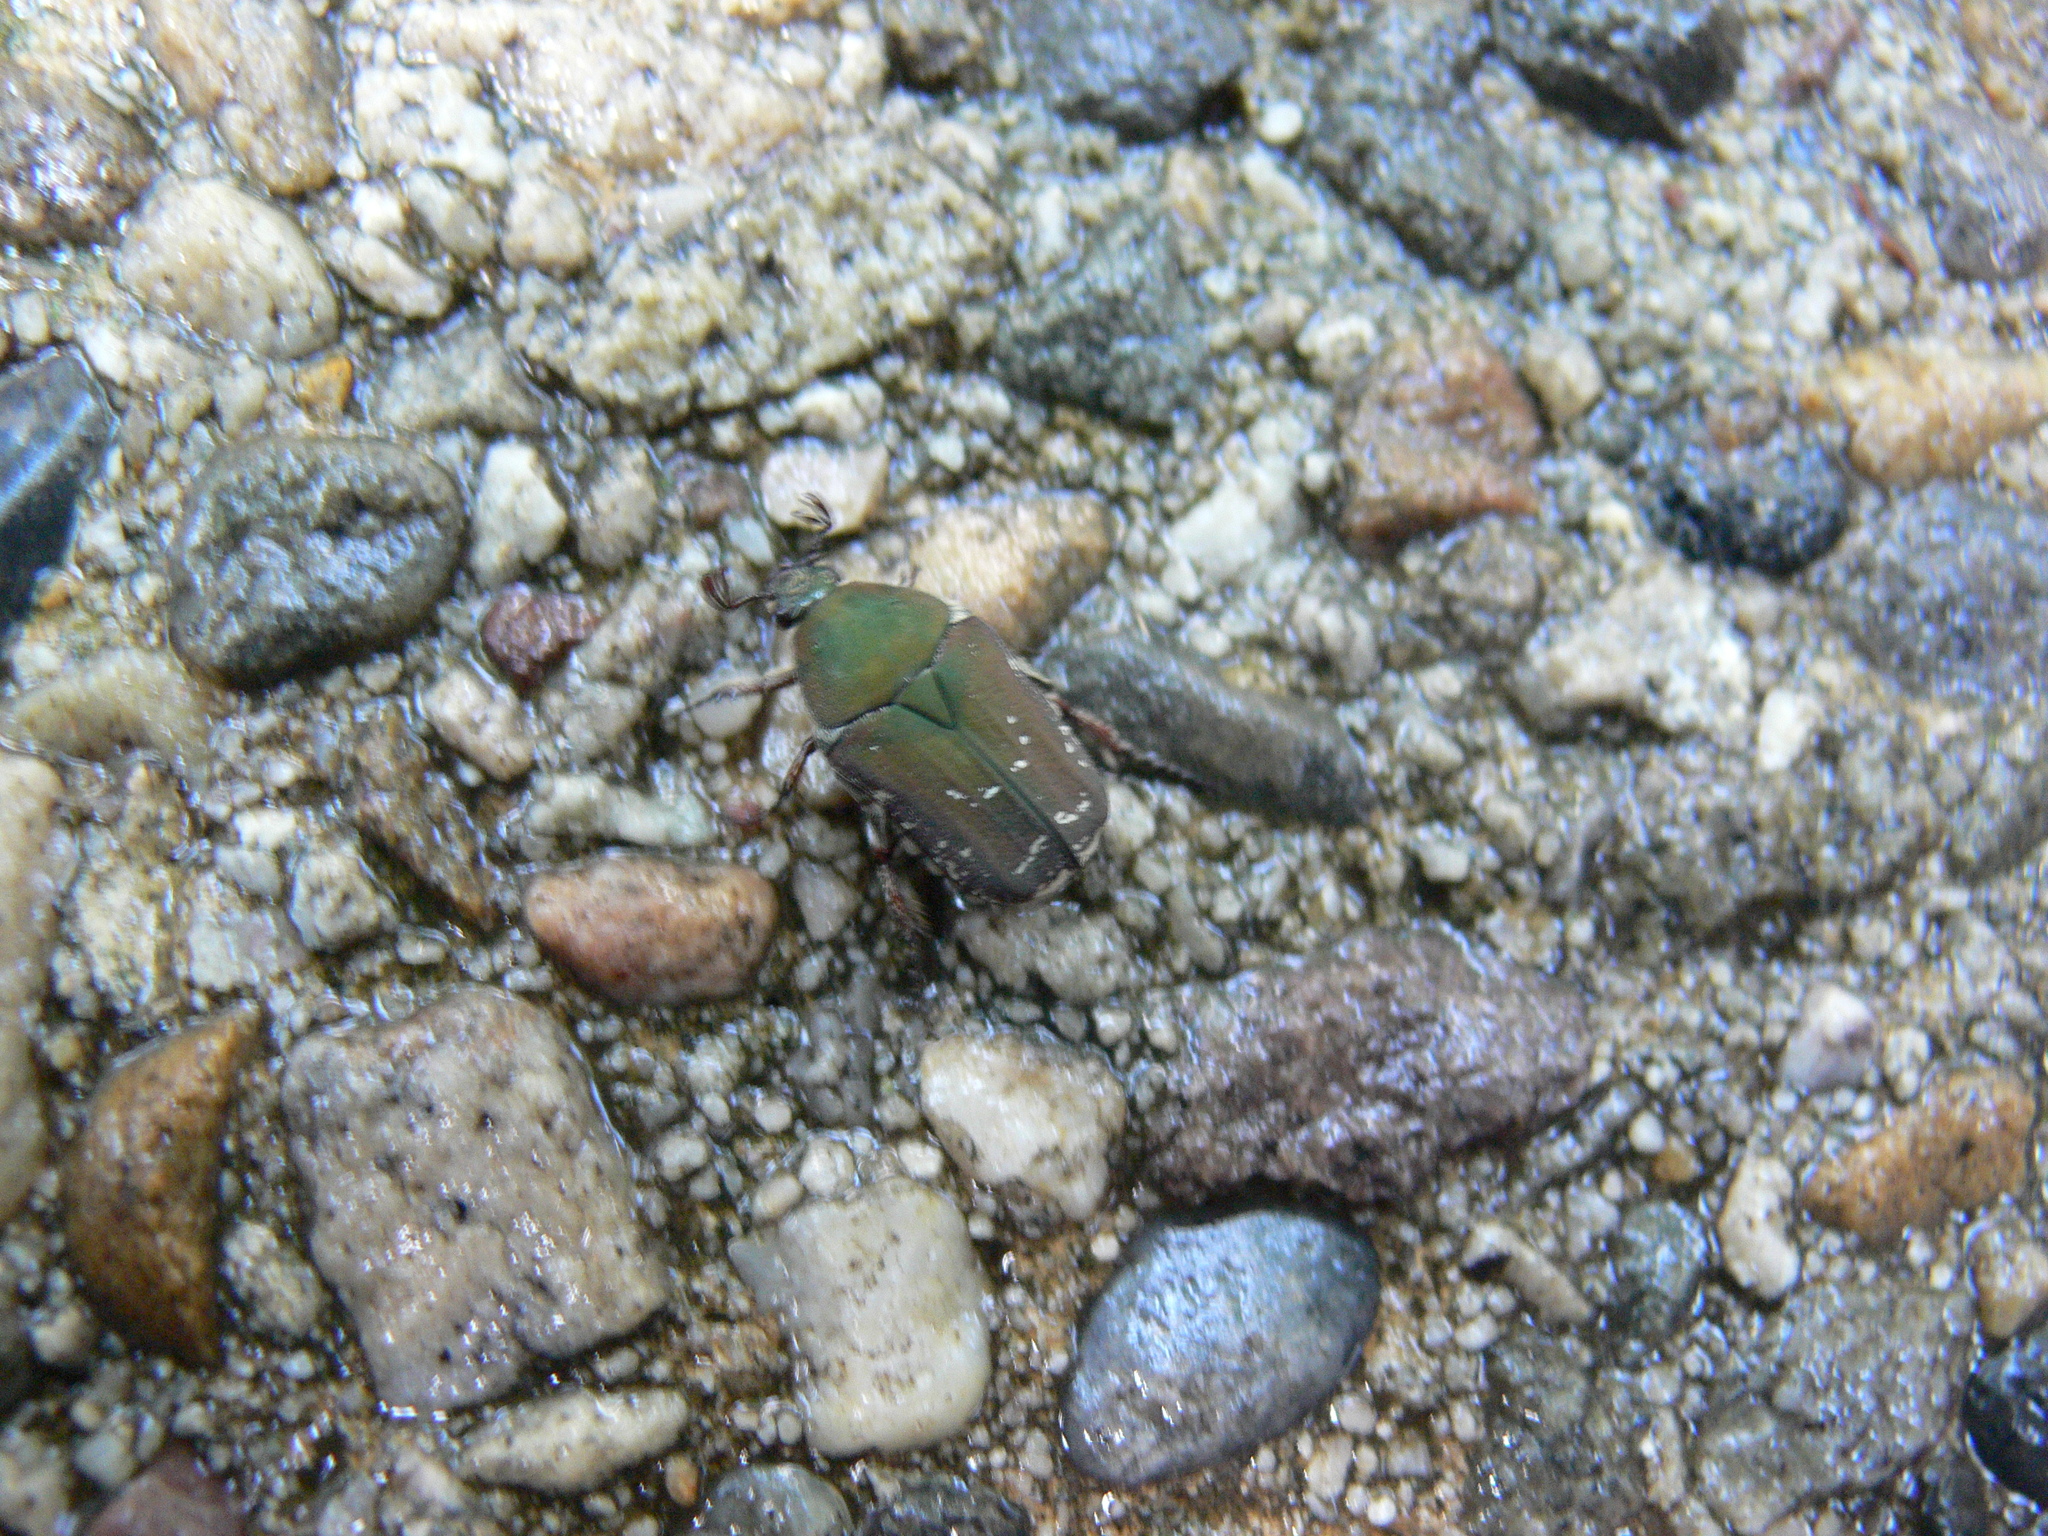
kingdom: Animalia
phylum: Arthropoda
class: Insecta
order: Coleoptera
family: Scarabaeidae
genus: Cotinis
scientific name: Cotinis nitida
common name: Common green june beetle
